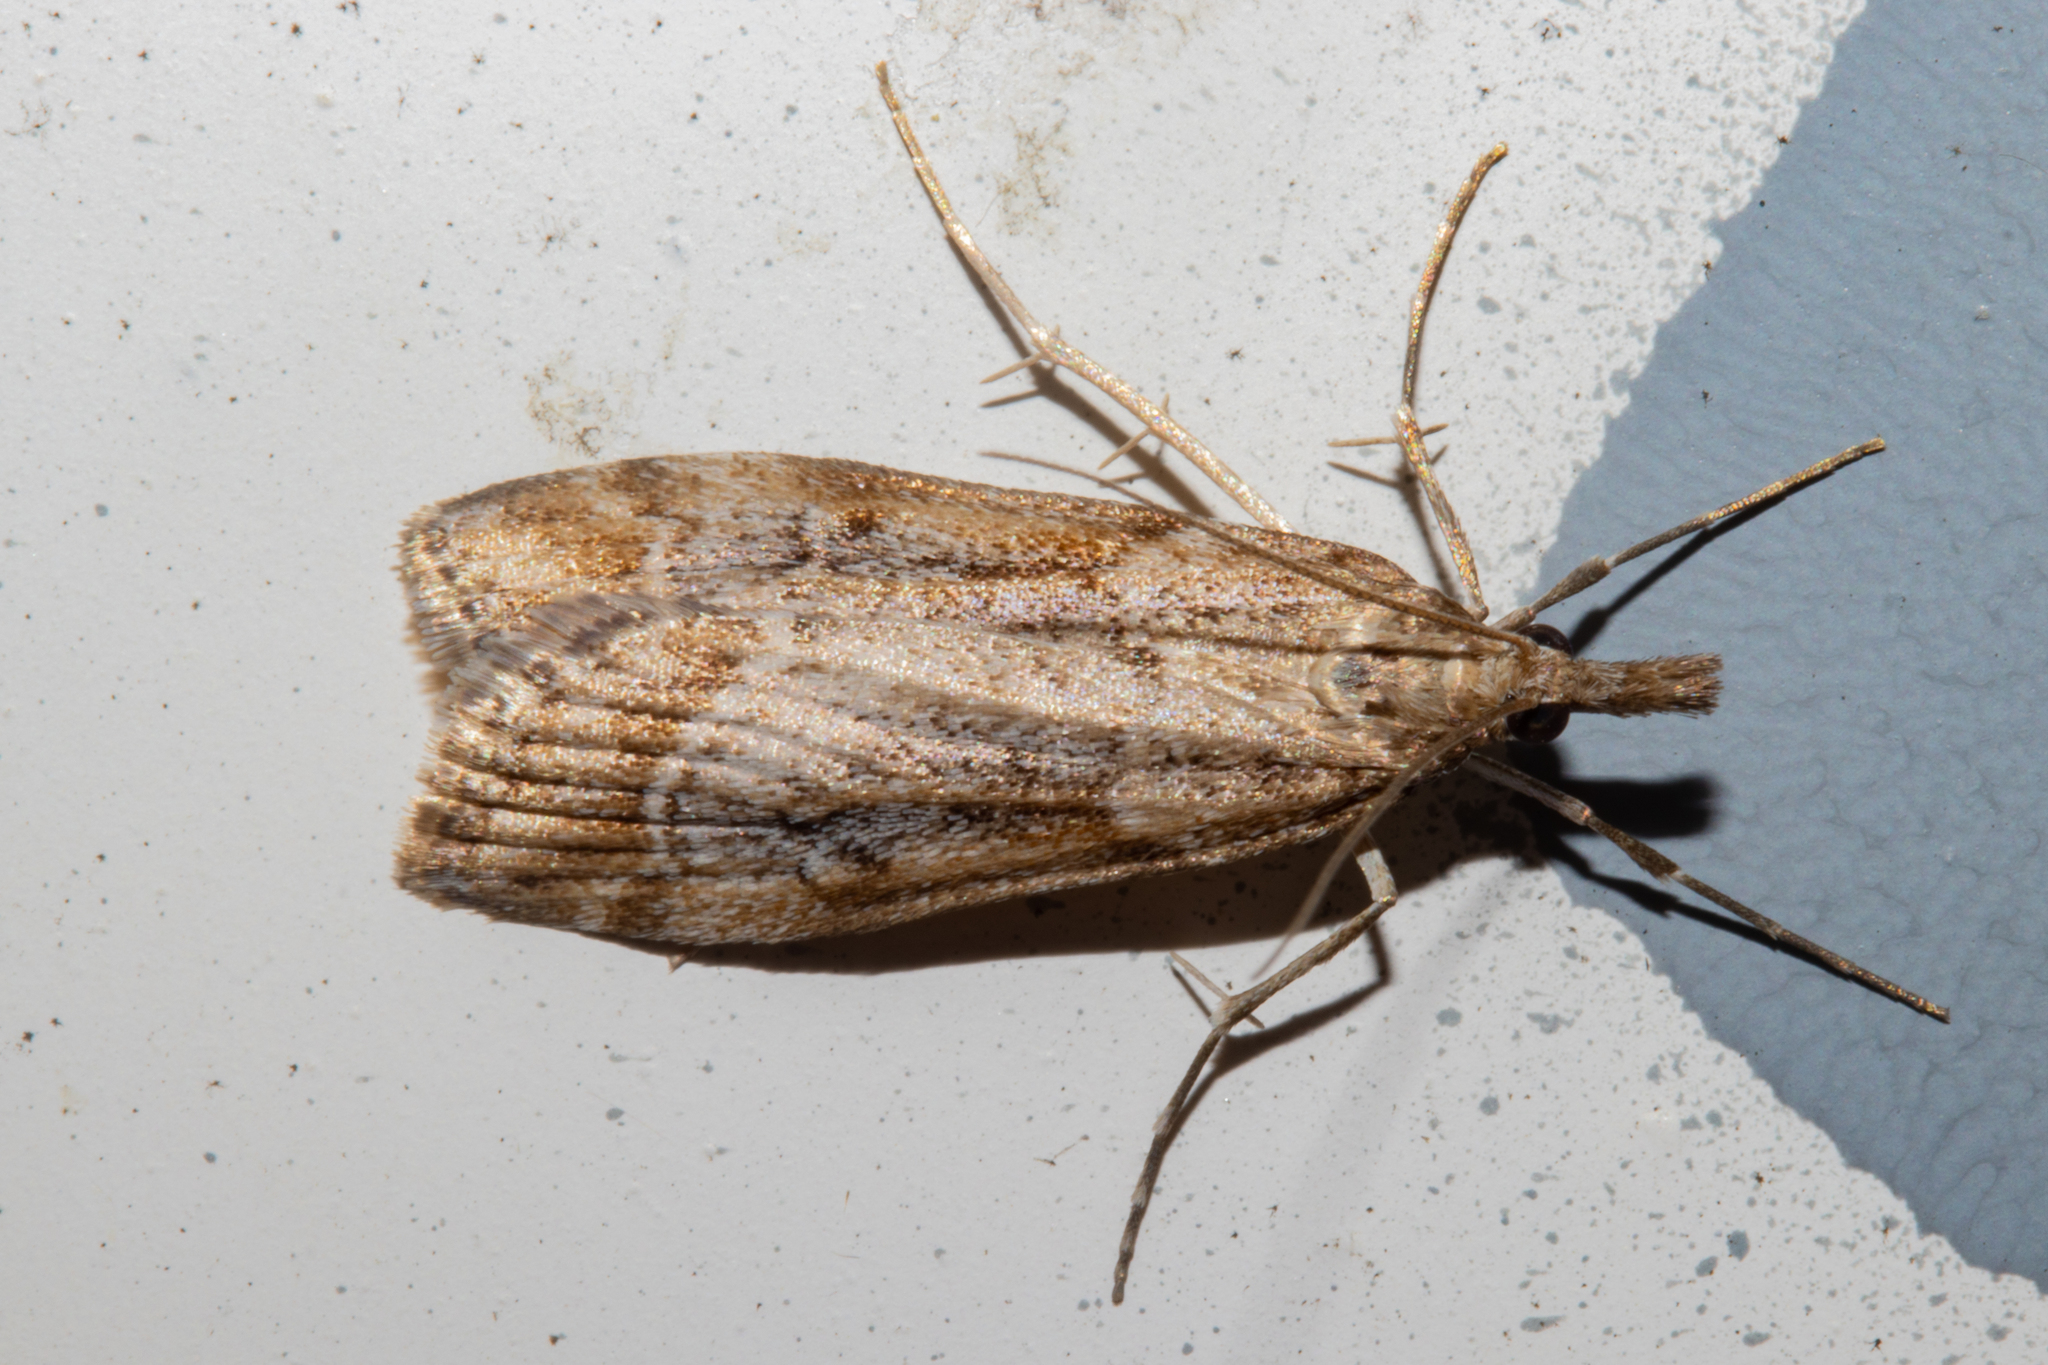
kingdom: Animalia
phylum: Arthropoda
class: Insecta
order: Lepidoptera
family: Crambidae
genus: Eudonia
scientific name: Eudonia chalara
